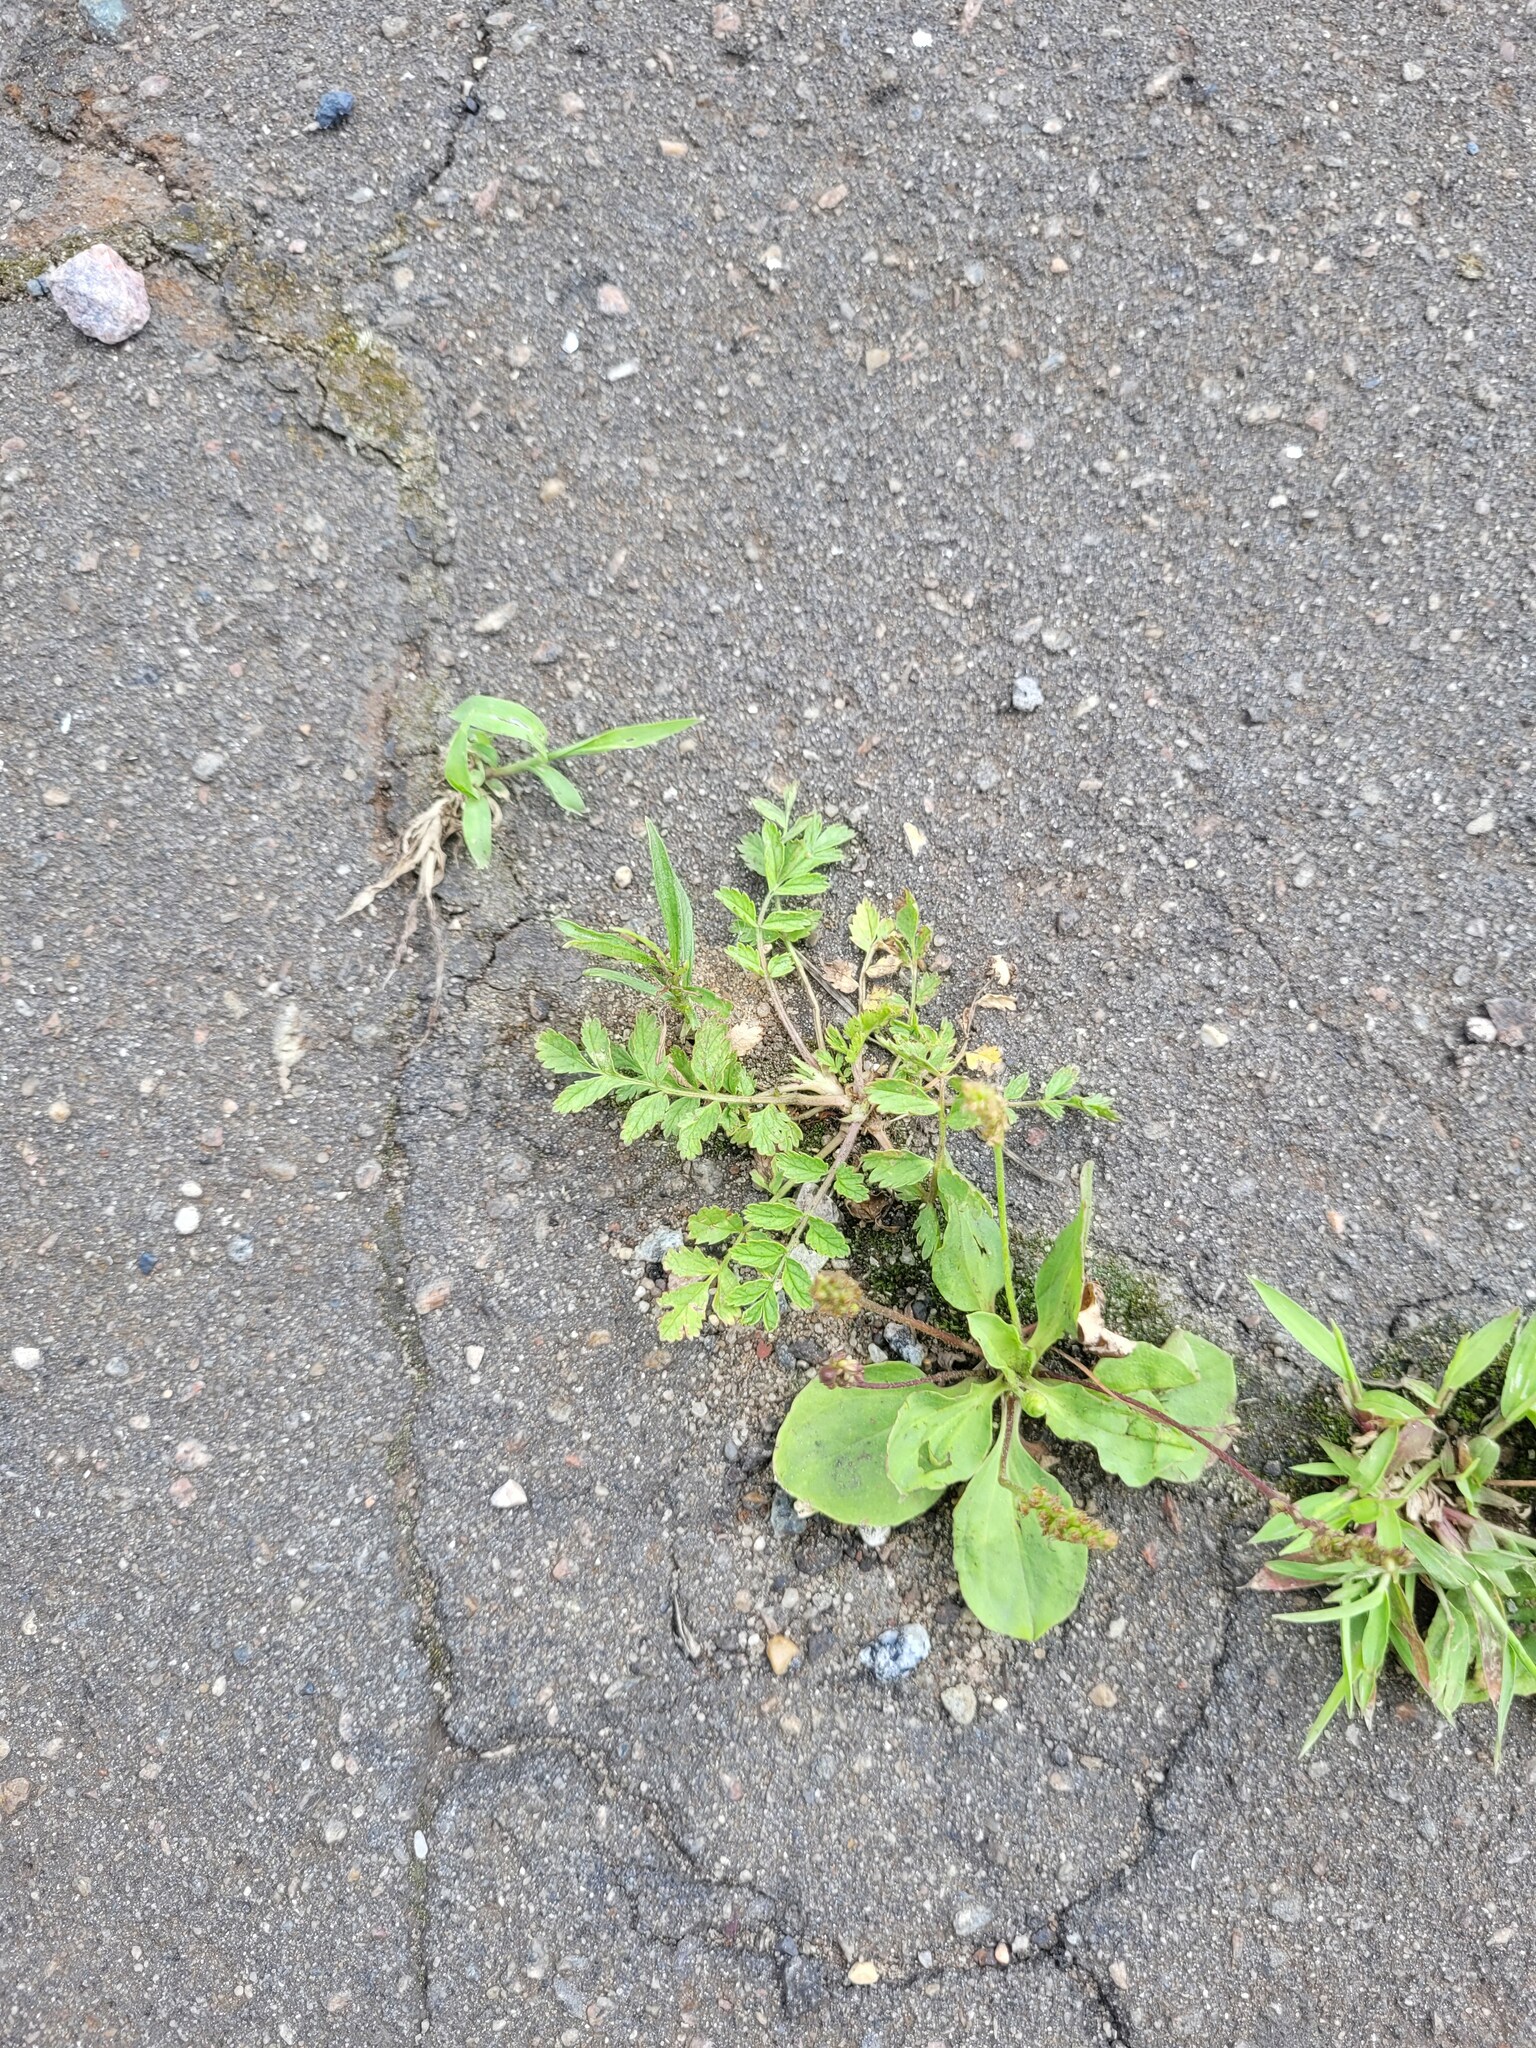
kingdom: Plantae
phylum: Tracheophyta
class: Magnoliopsida
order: Rosales
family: Rosaceae
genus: Potentilla
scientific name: Potentilla supina
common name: Prostrate cinquefoil
